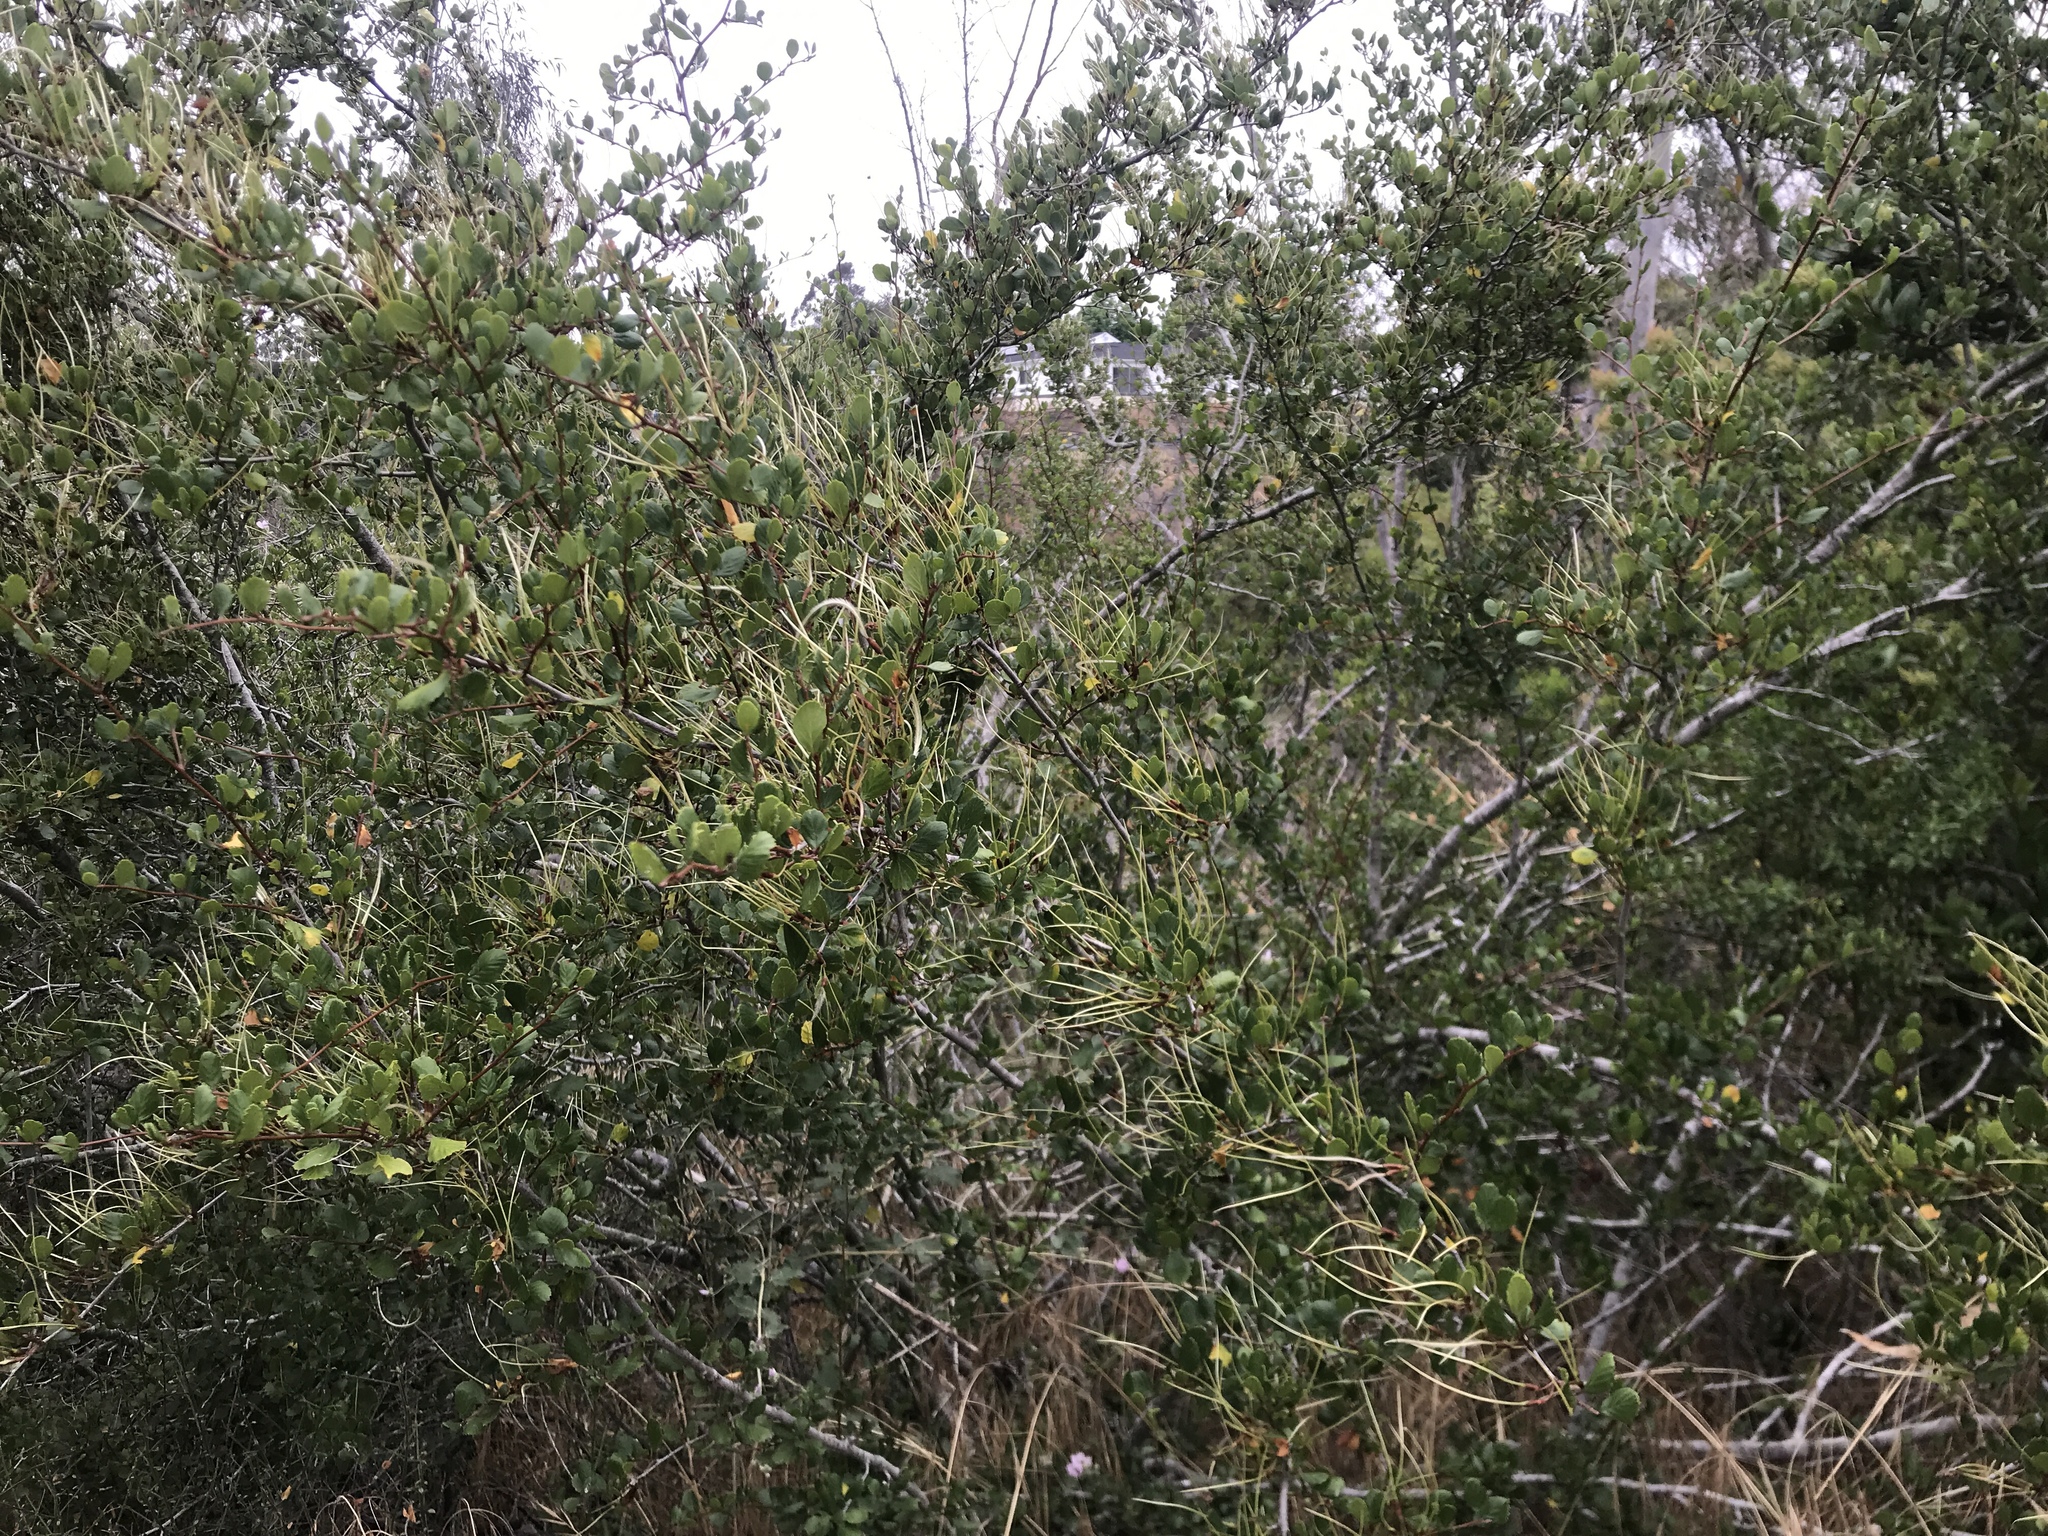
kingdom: Plantae
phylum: Tracheophyta
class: Magnoliopsida
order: Rosales
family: Rosaceae
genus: Cercocarpus
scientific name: Cercocarpus montanus
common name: Alder-leaf cercocarpus
